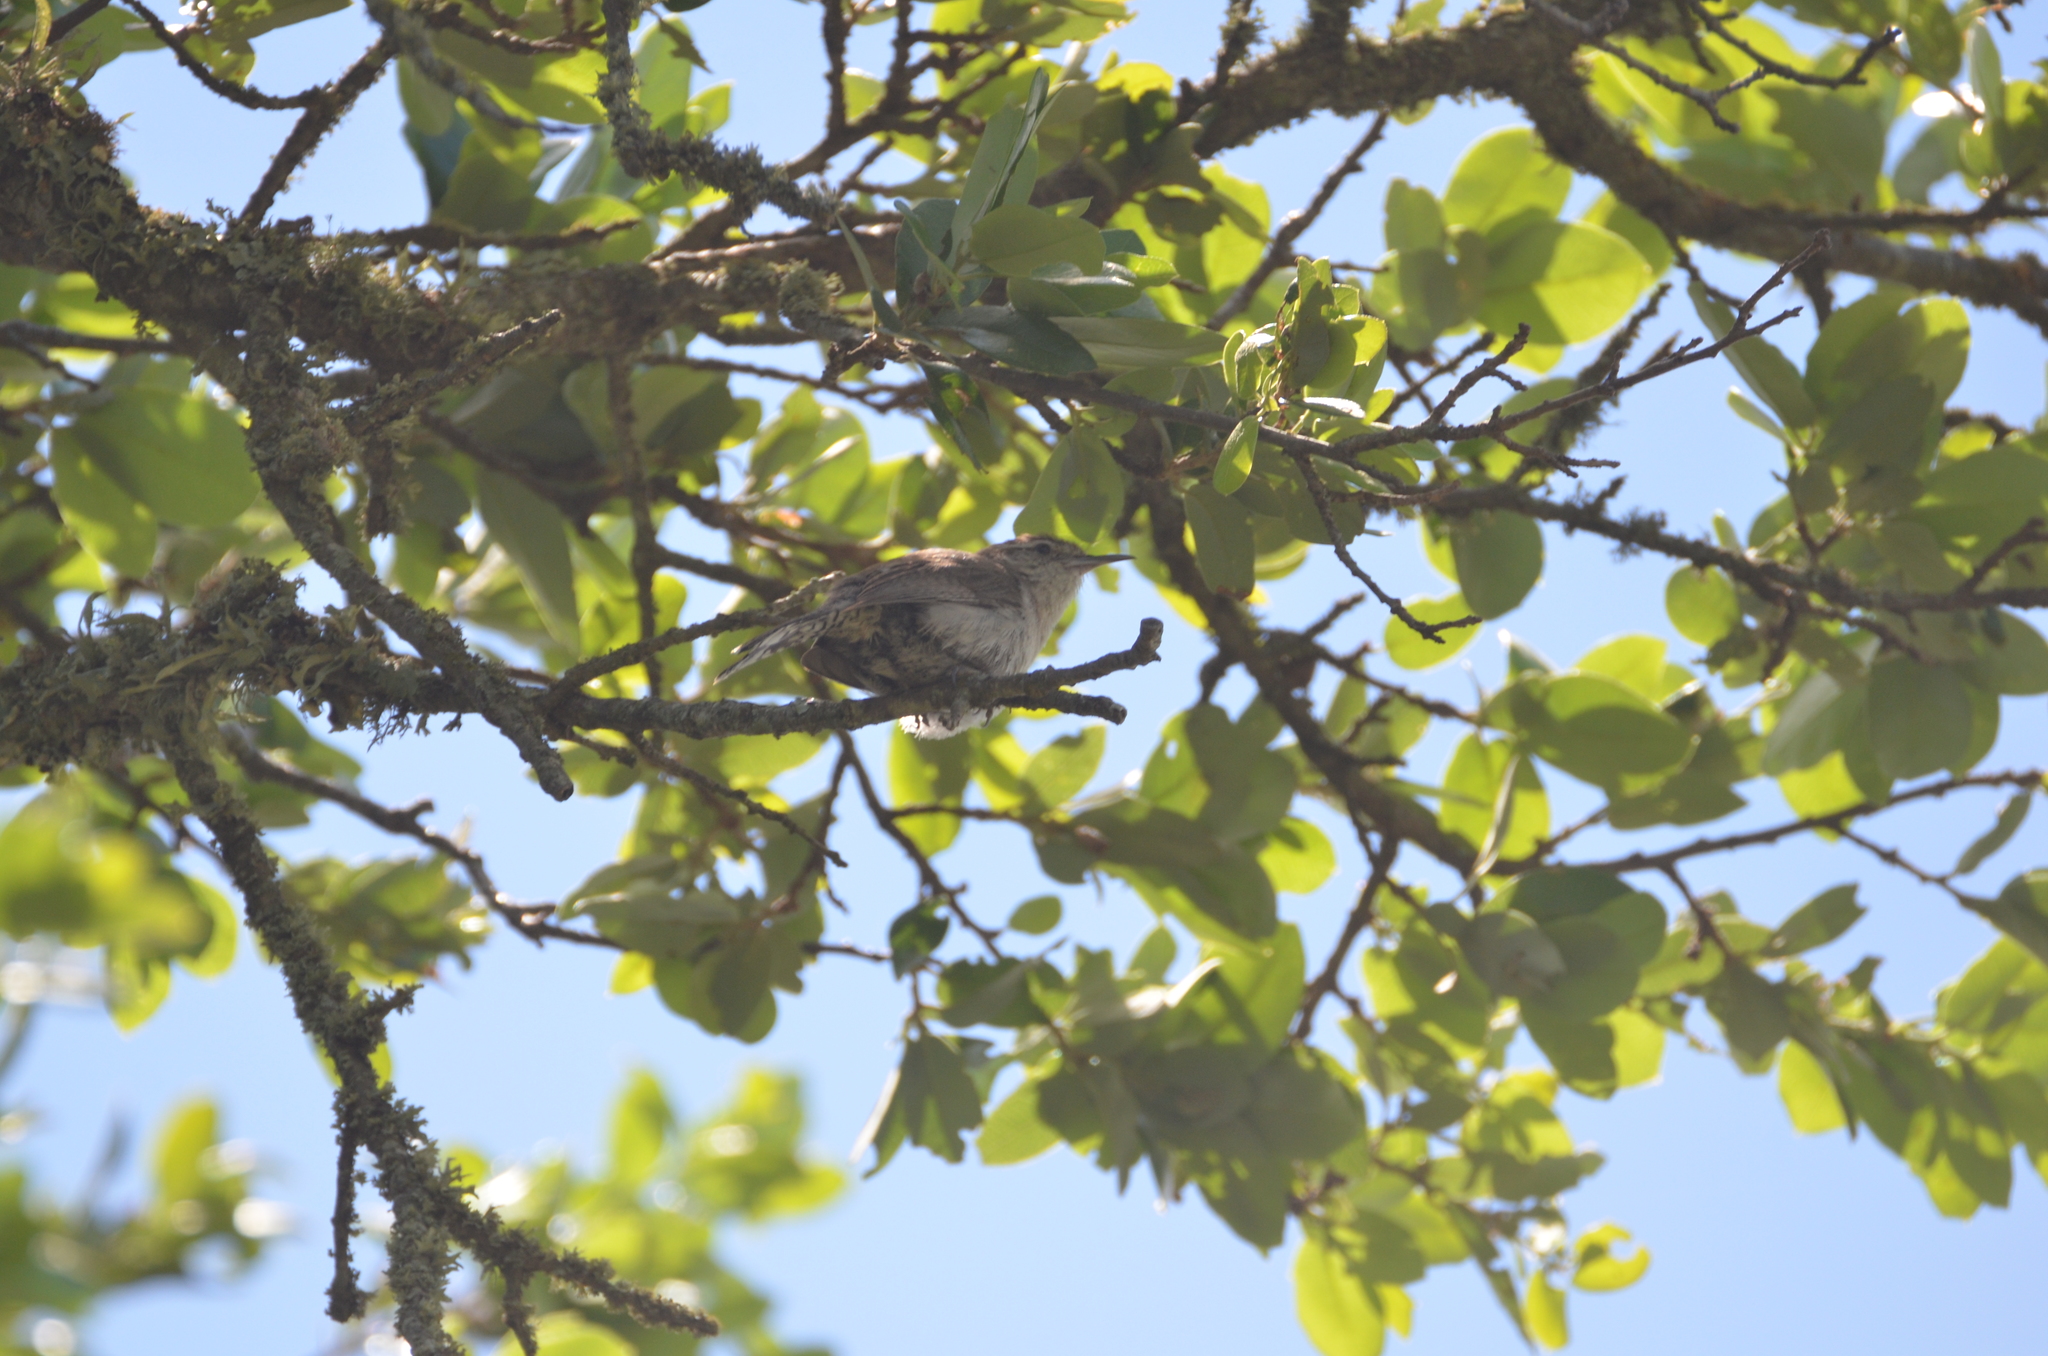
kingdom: Animalia
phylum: Chordata
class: Aves
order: Passeriformes
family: Troglodytidae
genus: Thryomanes
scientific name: Thryomanes bewickii
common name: Bewick's wren
